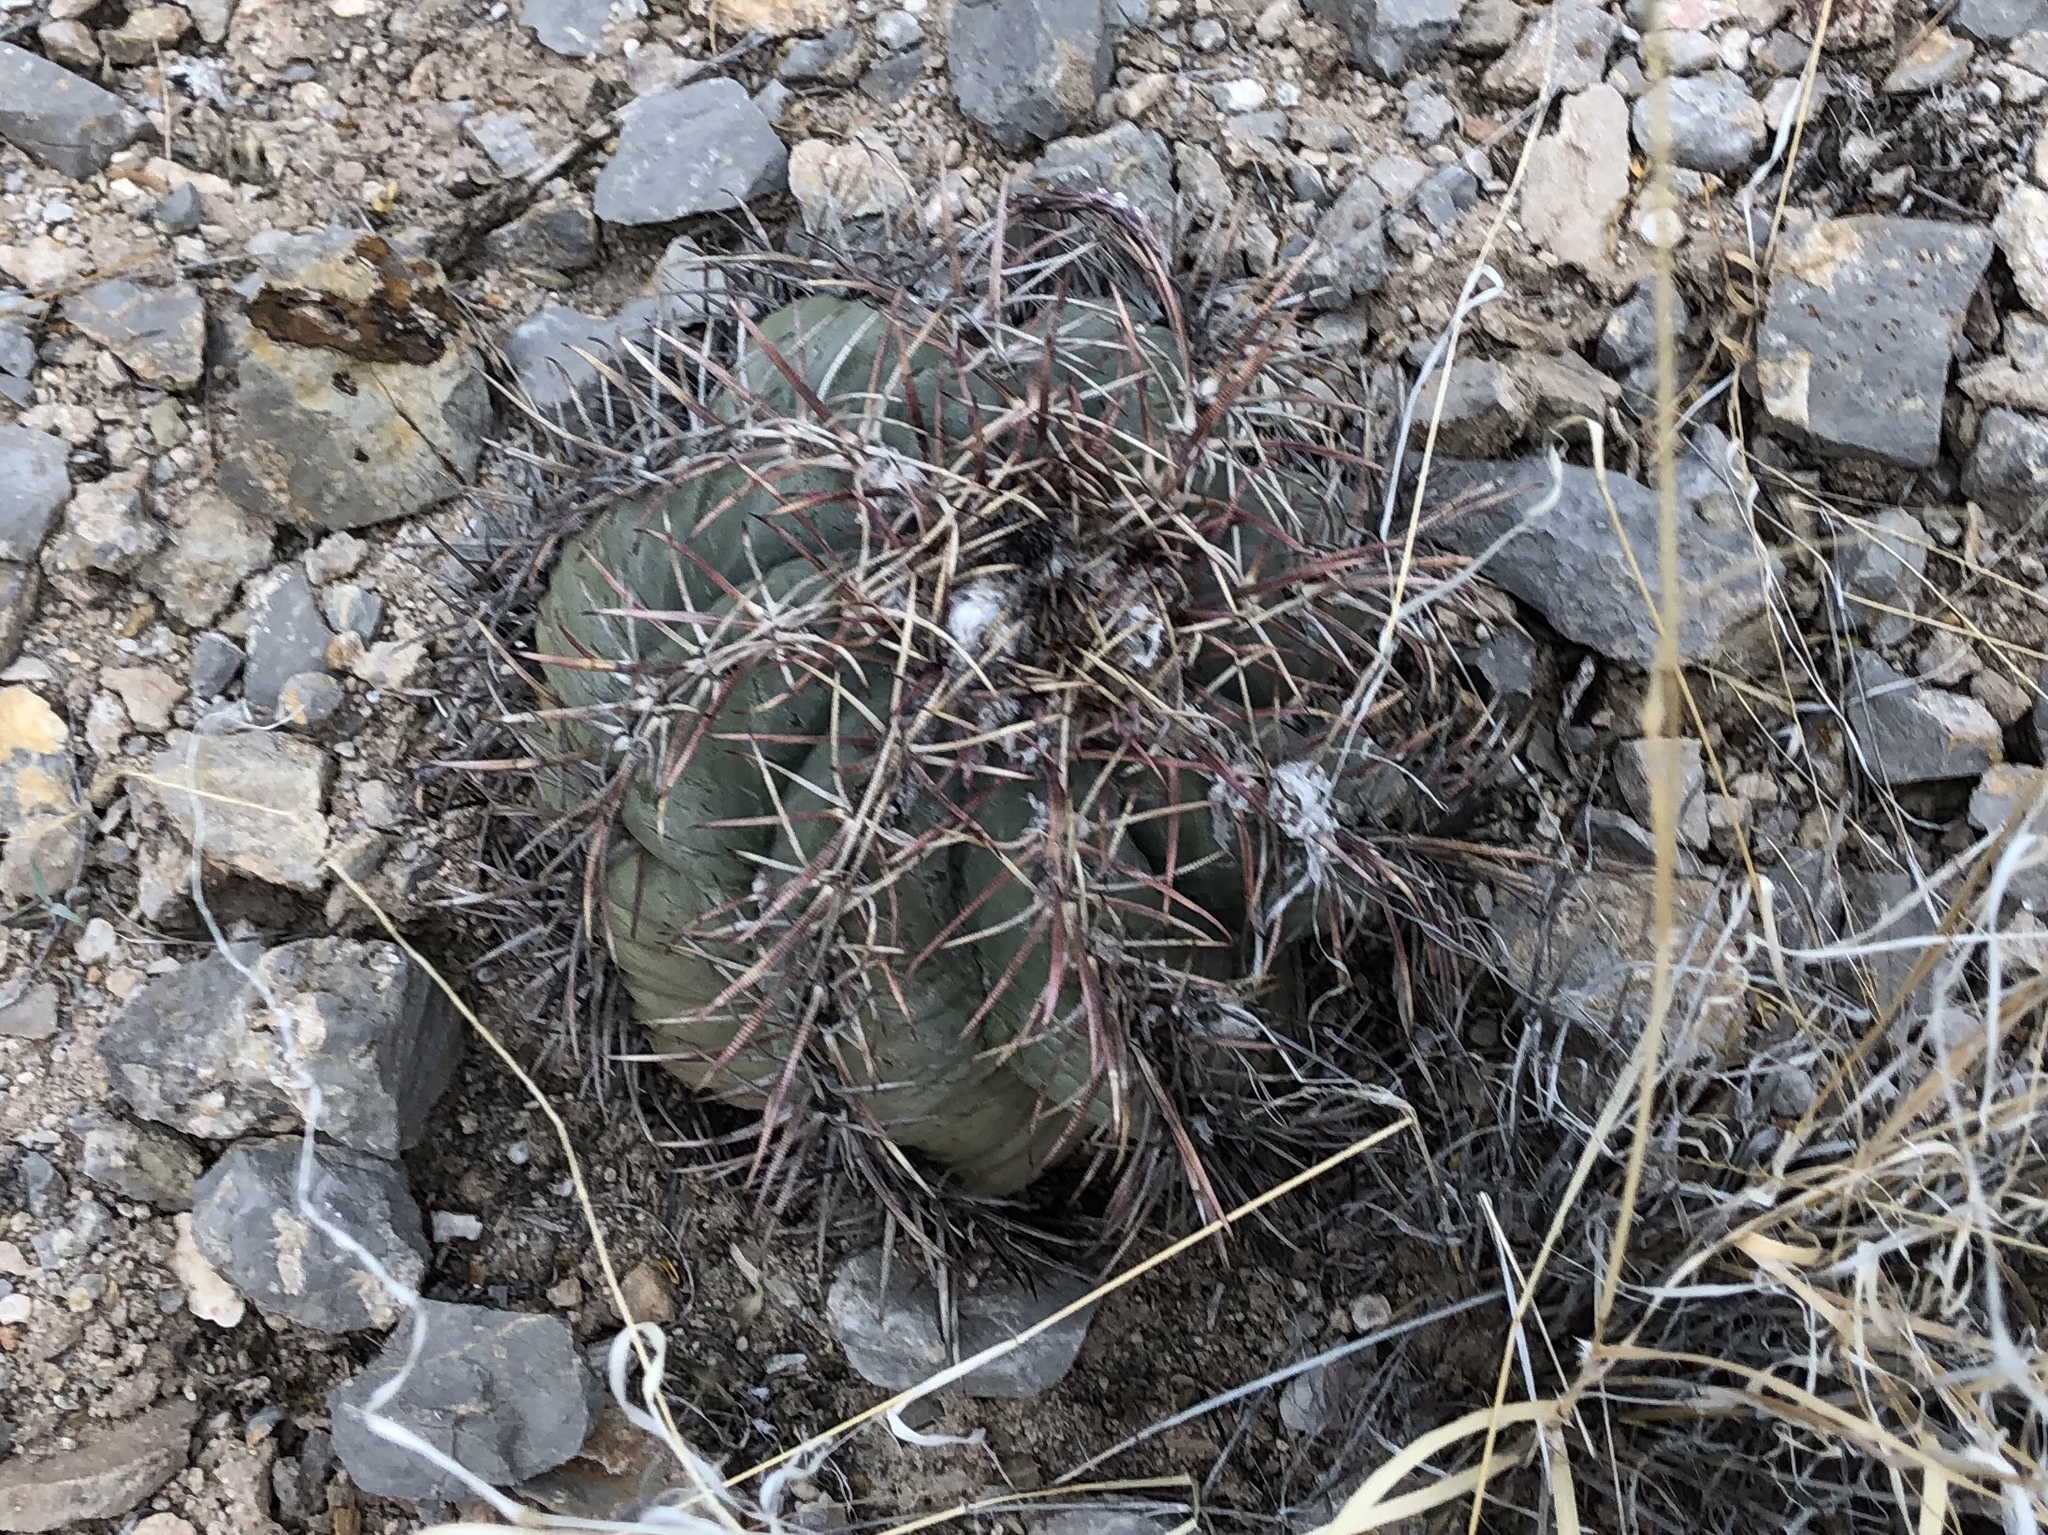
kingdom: Plantae
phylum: Tracheophyta
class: Magnoliopsida
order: Caryophyllales
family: Cactaceae
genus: Echinocactus
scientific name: Echinocactus horizonthalonius
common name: Devilshead
